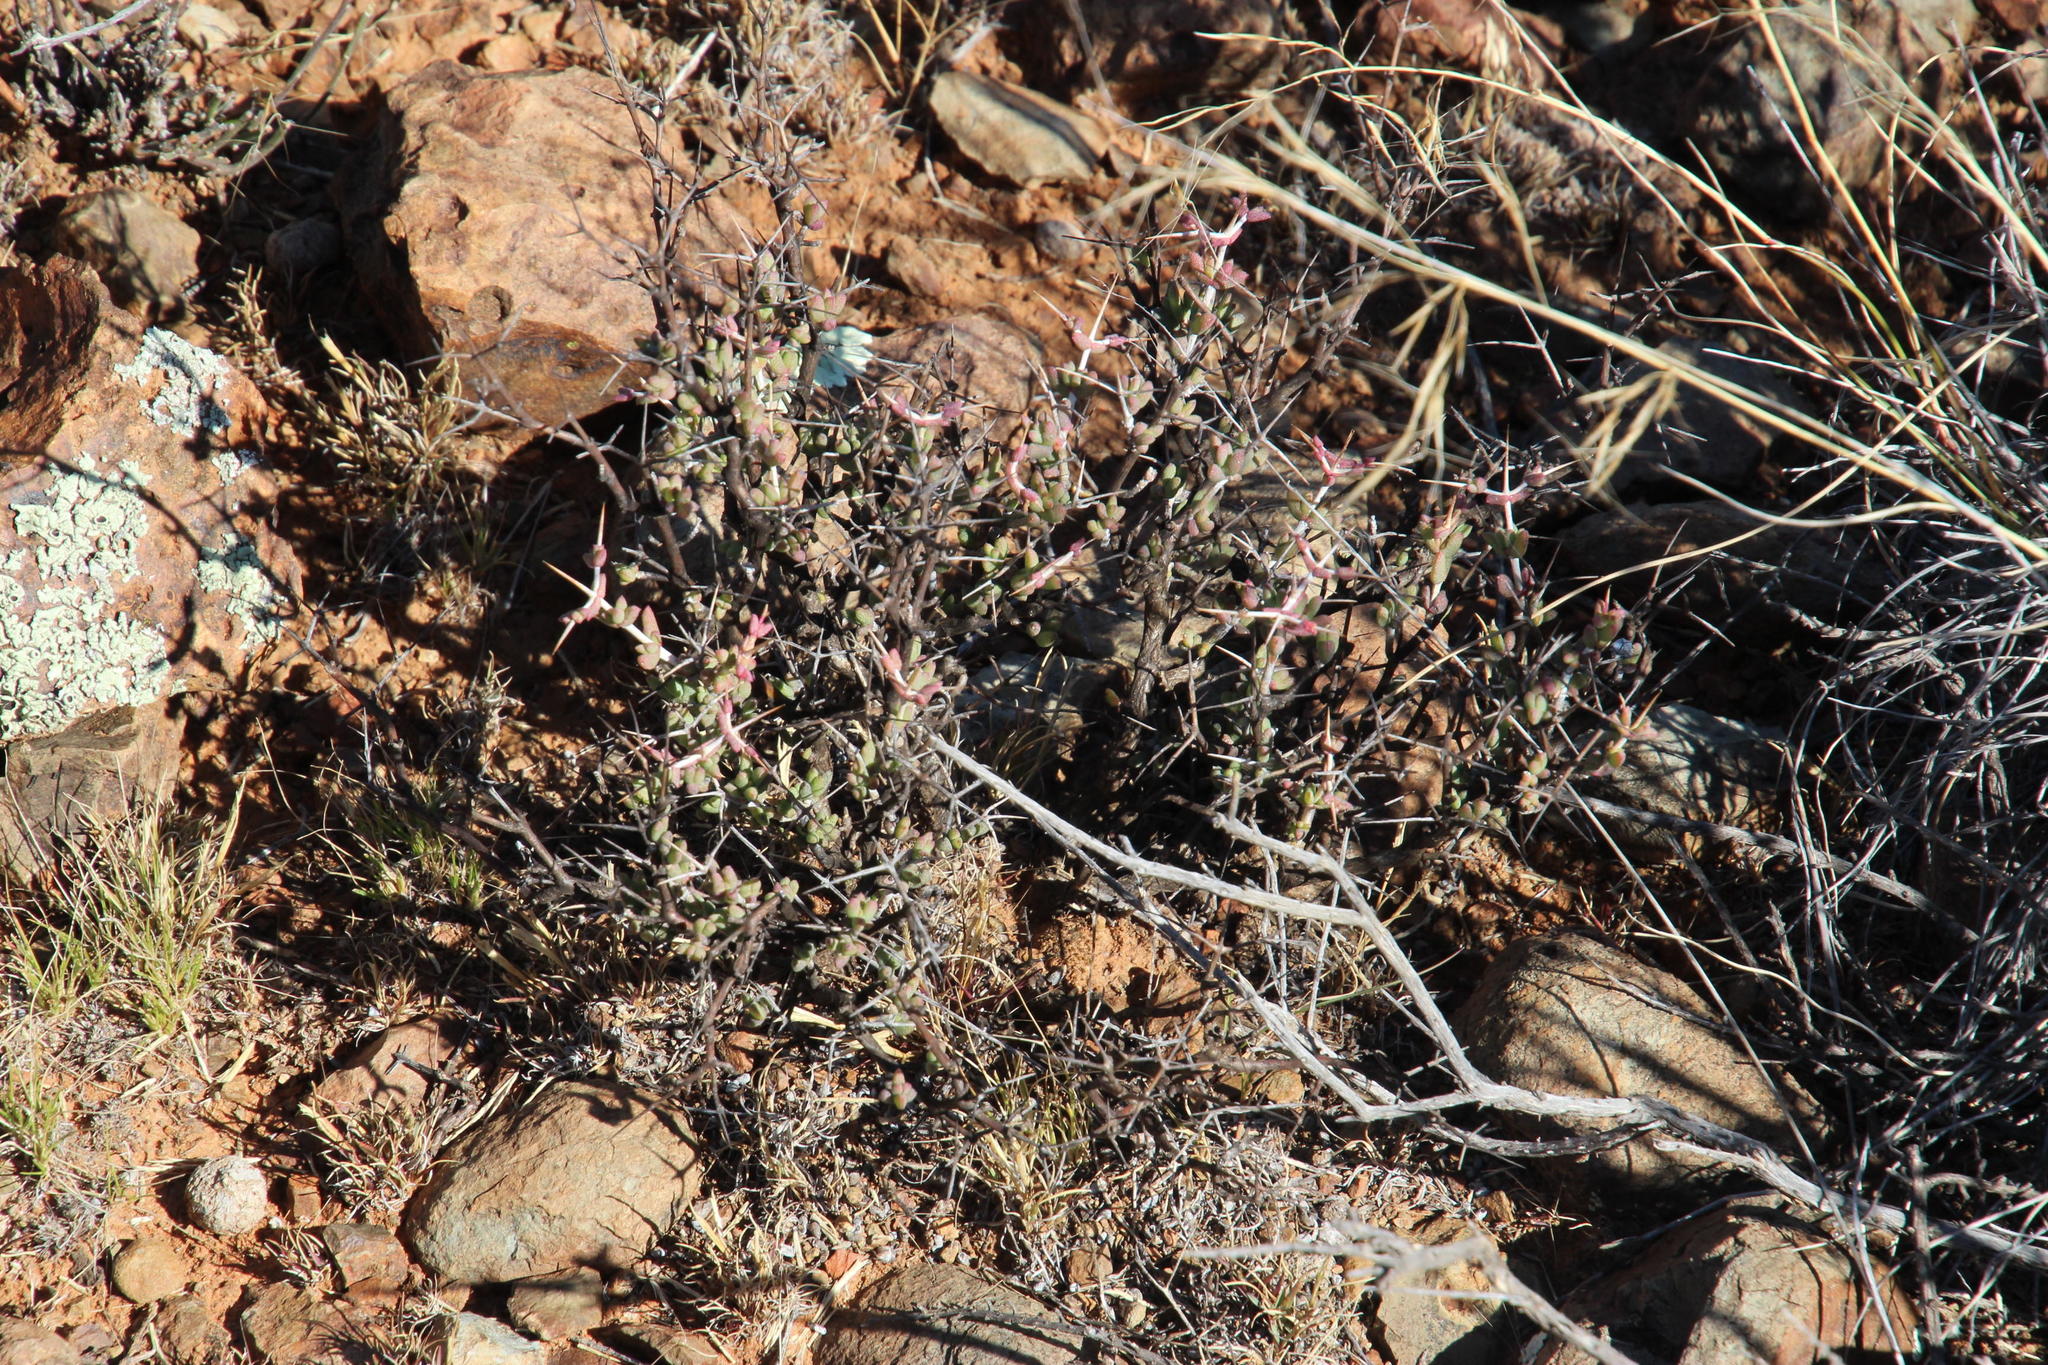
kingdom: Plantae
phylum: Tracheophyta
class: Magnoliopsida
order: Caryophyllales
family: Aizoaceae
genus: Ruschia
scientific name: Ruschia intricata
